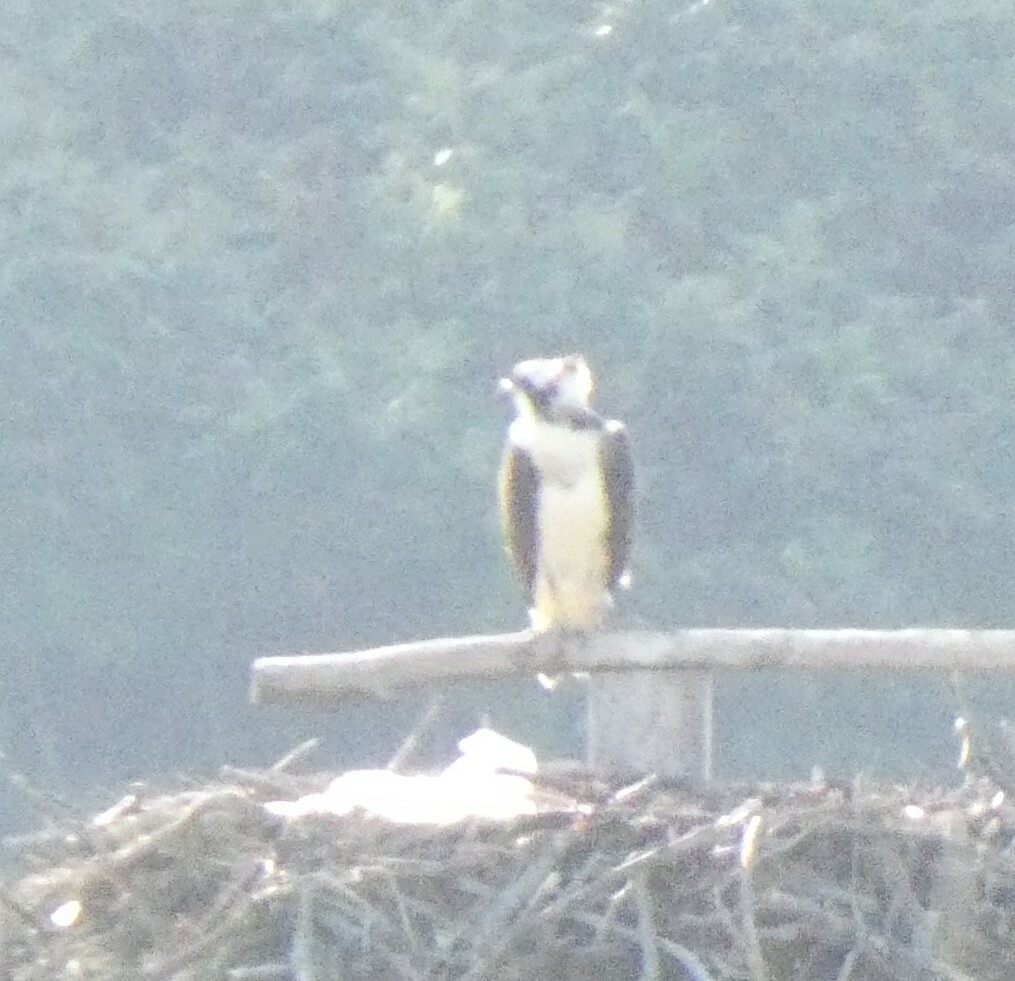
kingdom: Animalia
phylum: Chordata
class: Aves
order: Accipitriformes
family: Pandionidae
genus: Pandion
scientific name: Pandion haliaetus
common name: Osprey
